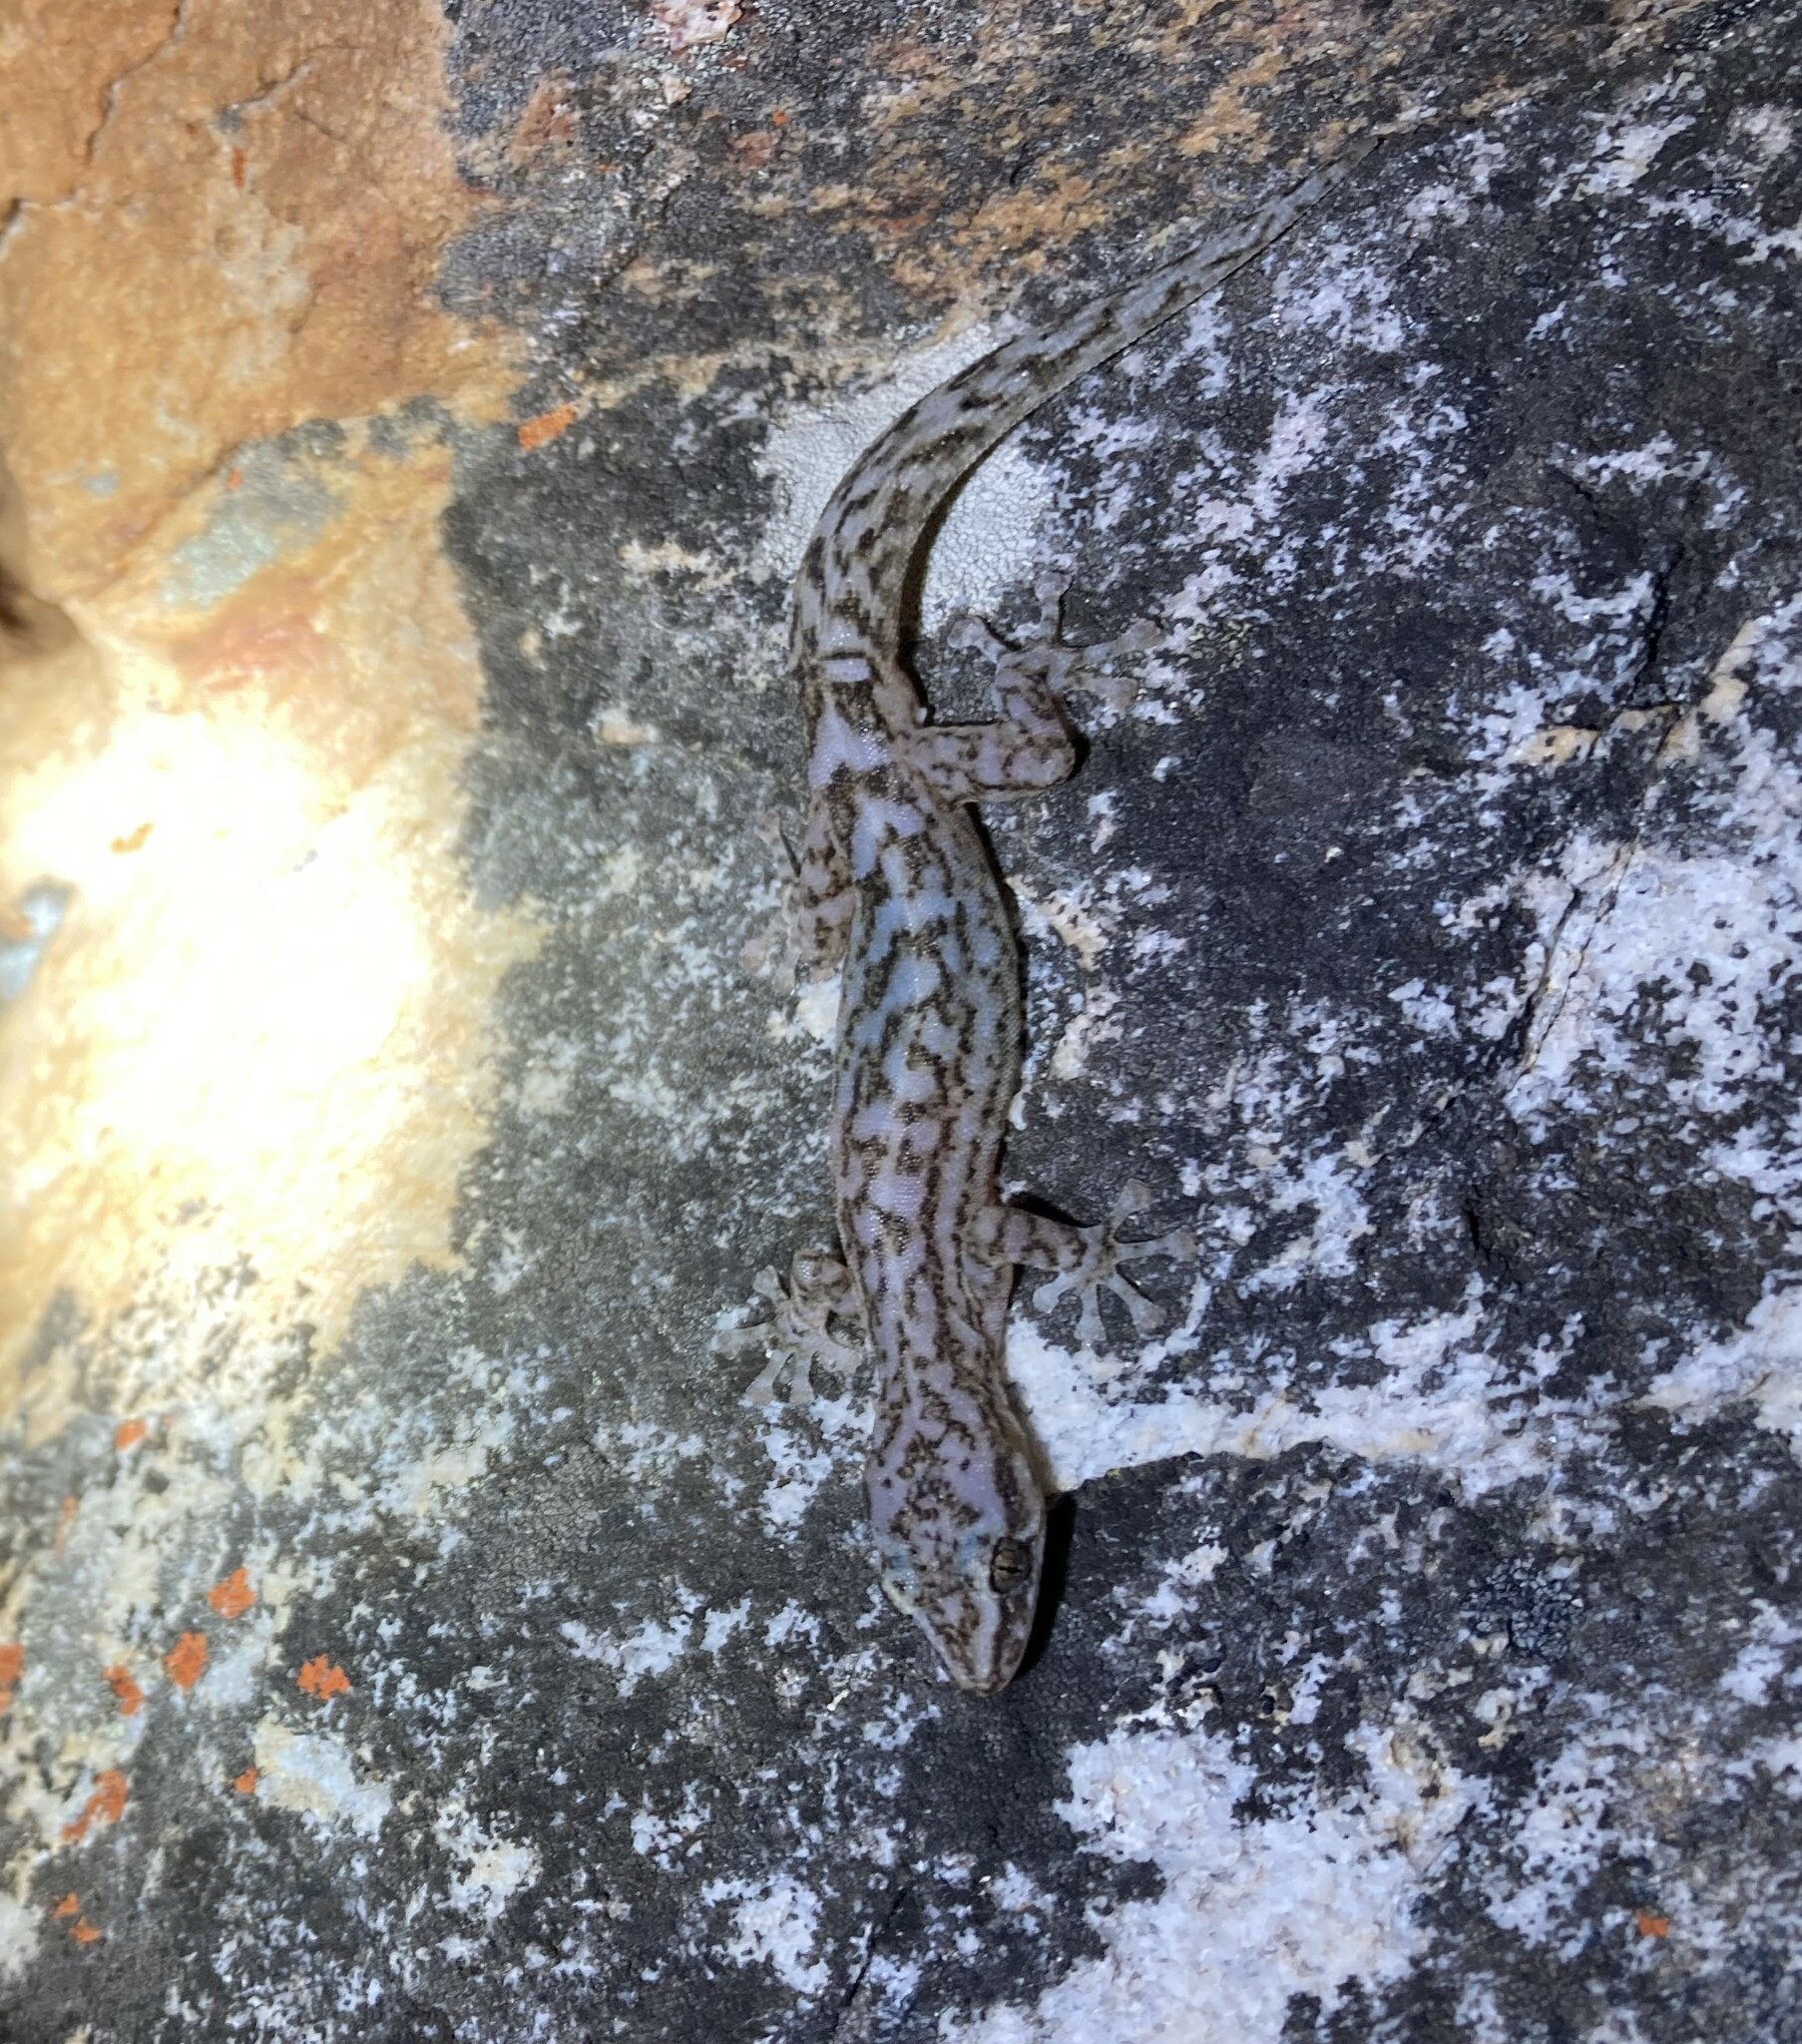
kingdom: Animalia
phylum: Chordata
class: Squamata
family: Gekkonidae
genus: Afrogecko
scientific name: Afrogecko porphyreus
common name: Marbled leaf-toed gecko
